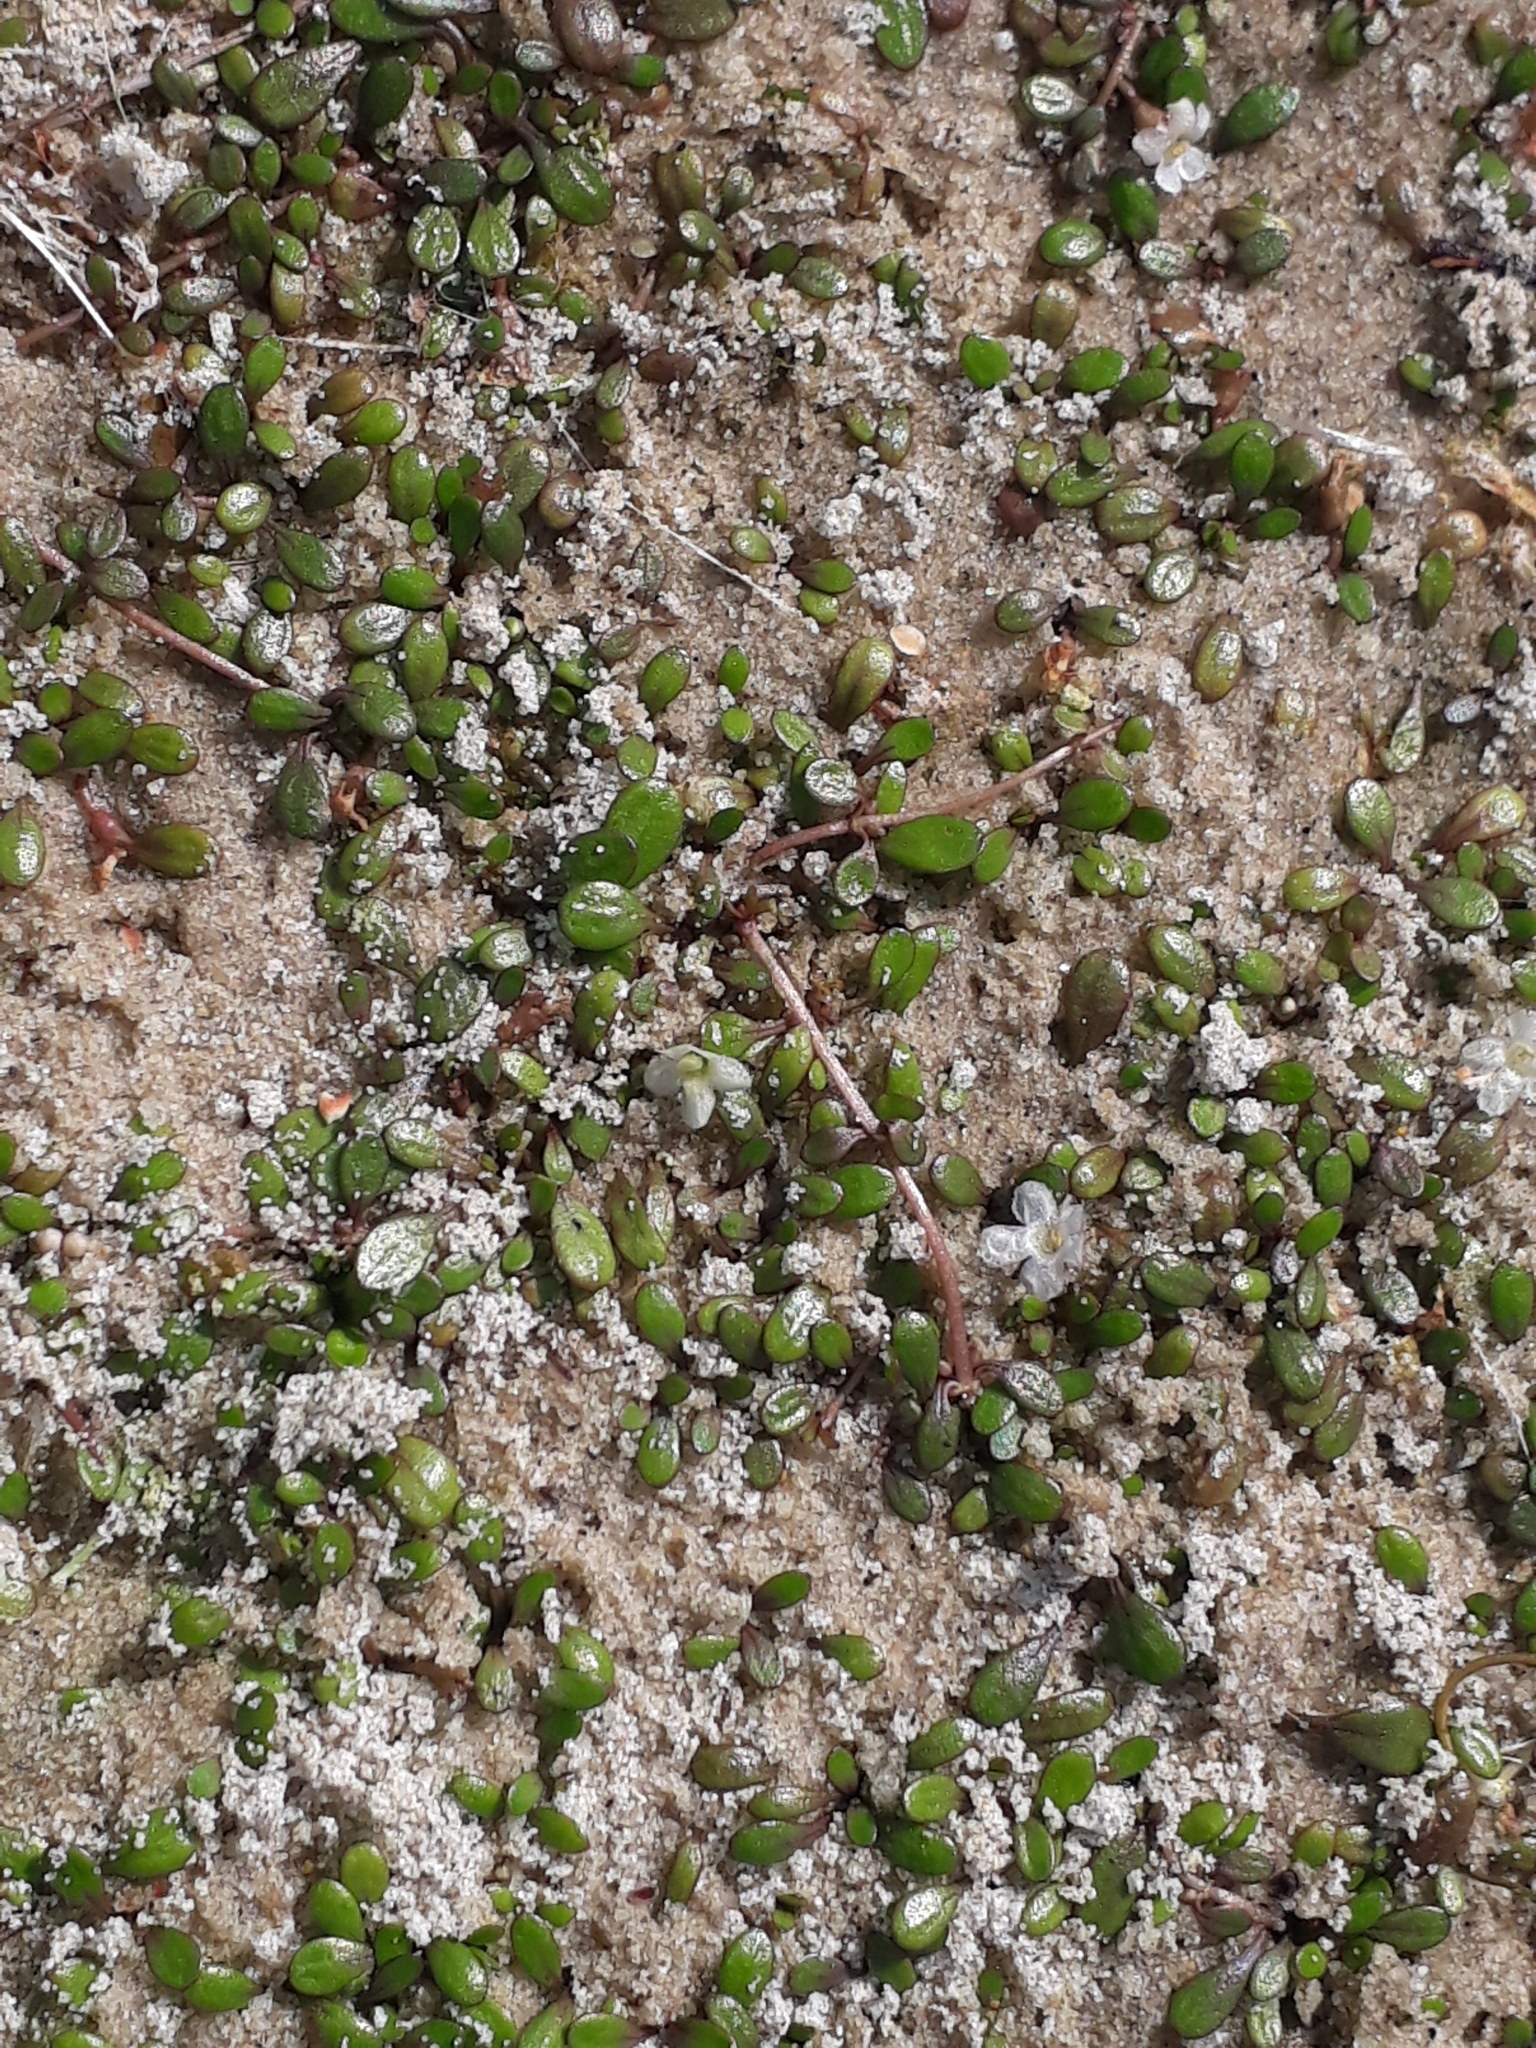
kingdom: Plantae
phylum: Tracheophyta
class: Magnoliopsida
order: Lamiales
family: Phrymaceae
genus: Glossostigma
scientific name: Glossostigma elatinoides
